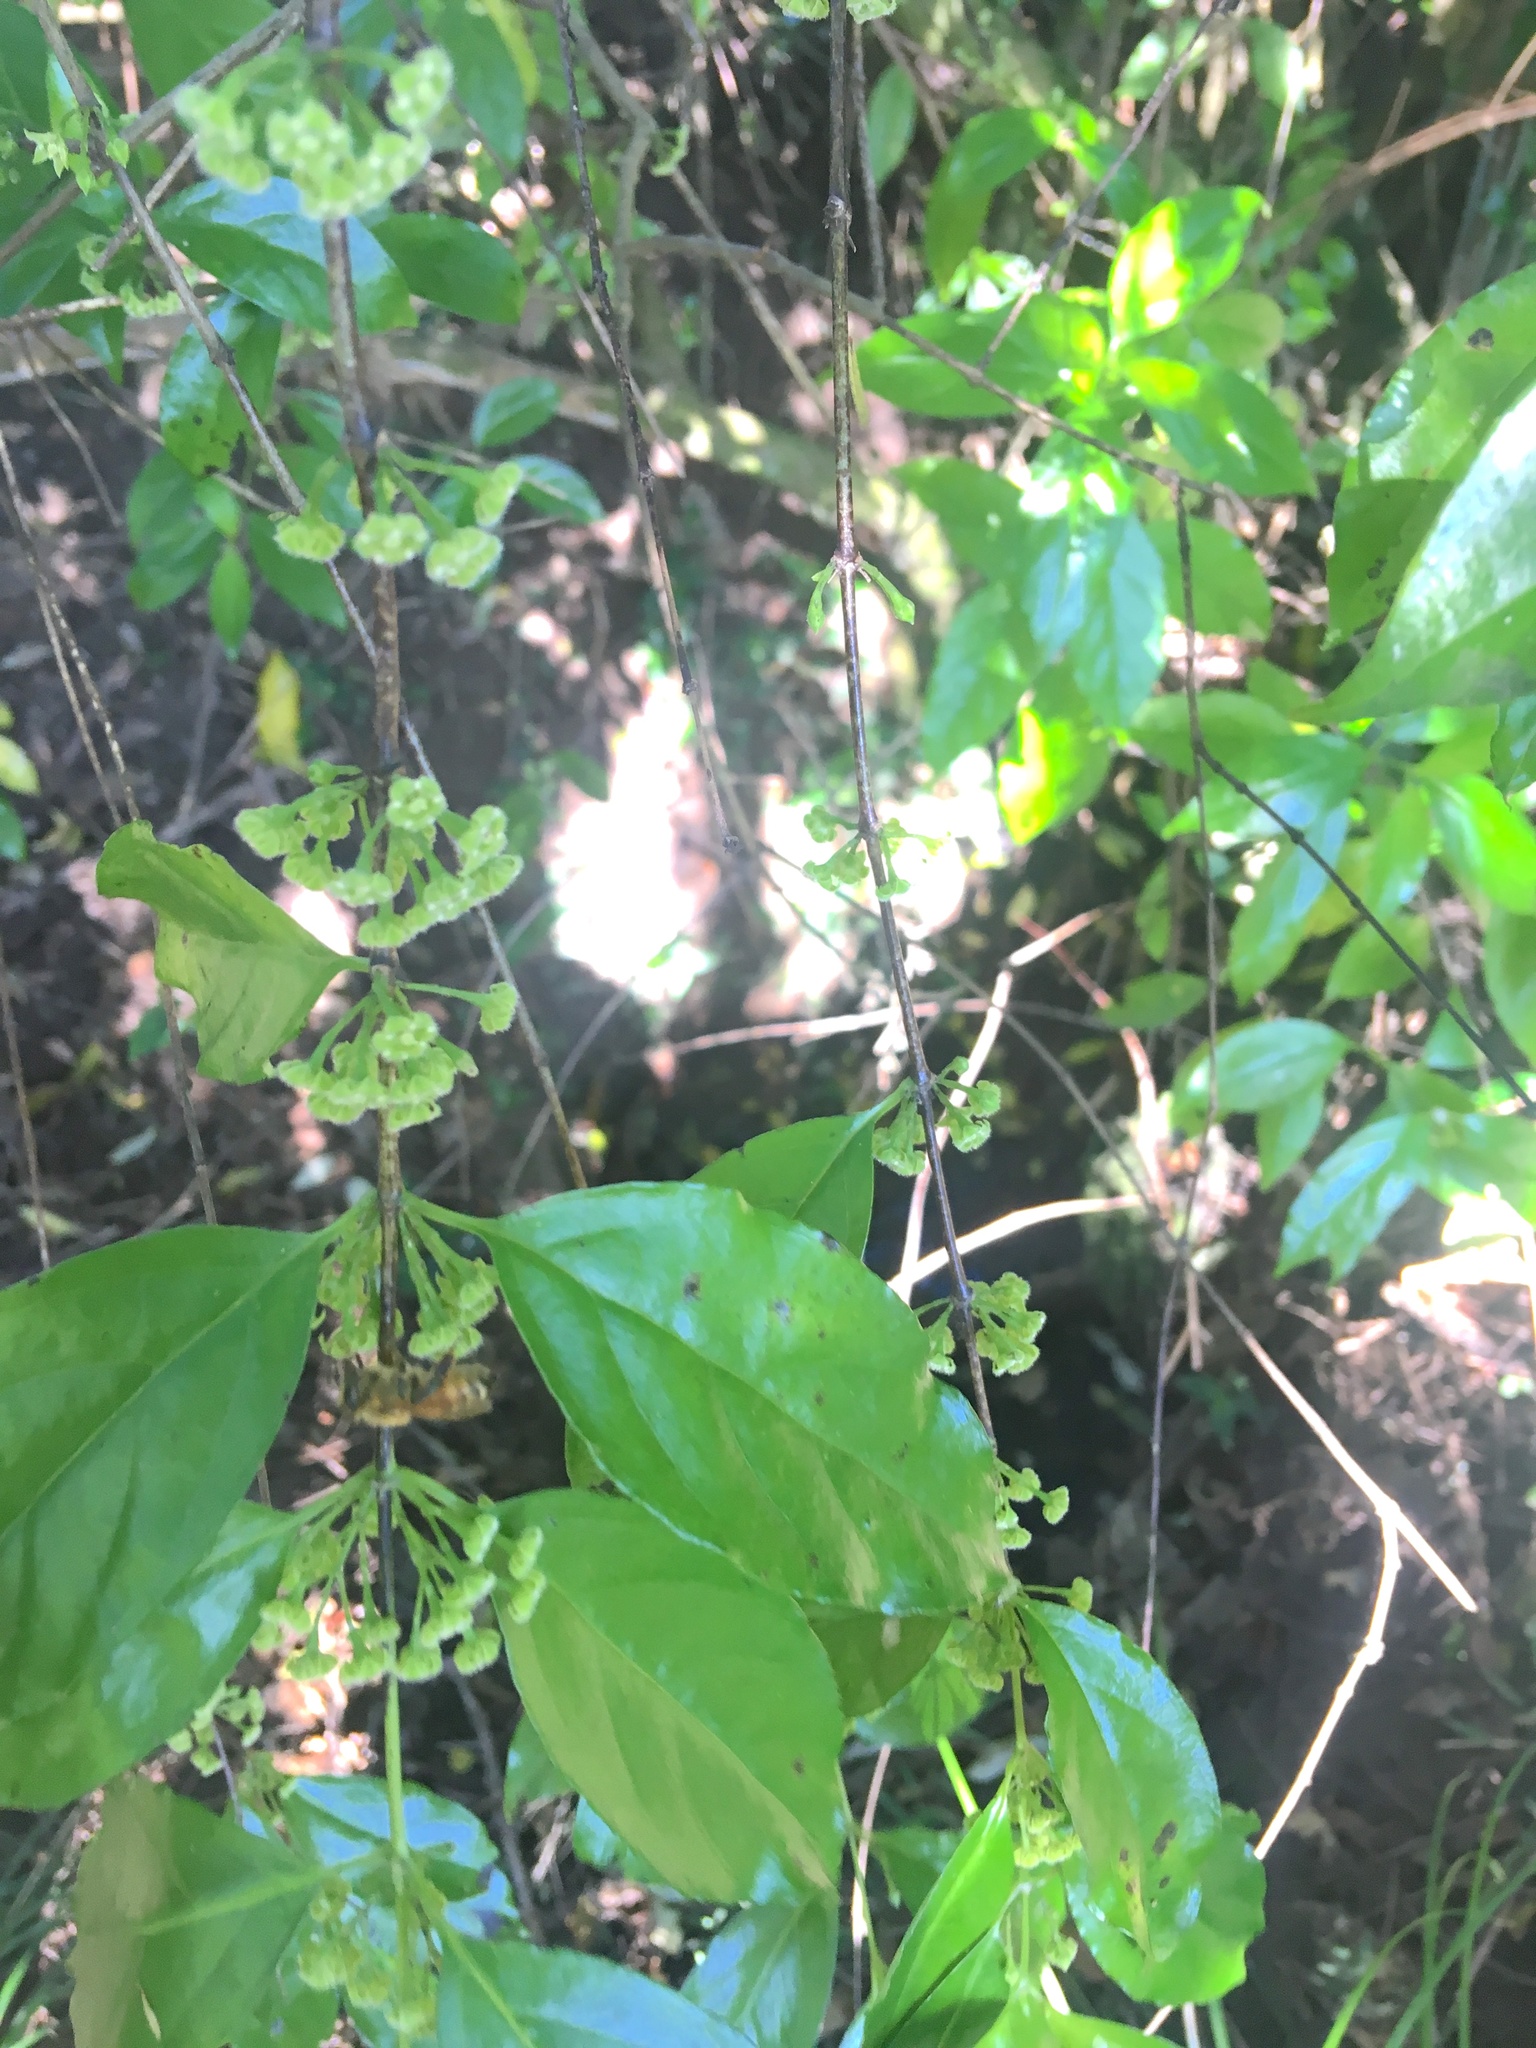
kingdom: Plantae
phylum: Tracheophyta
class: Magnoliopsida
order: Gentianales
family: Loganiaceae
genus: Geniostoma
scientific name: Geniostoma ligustrifolium
